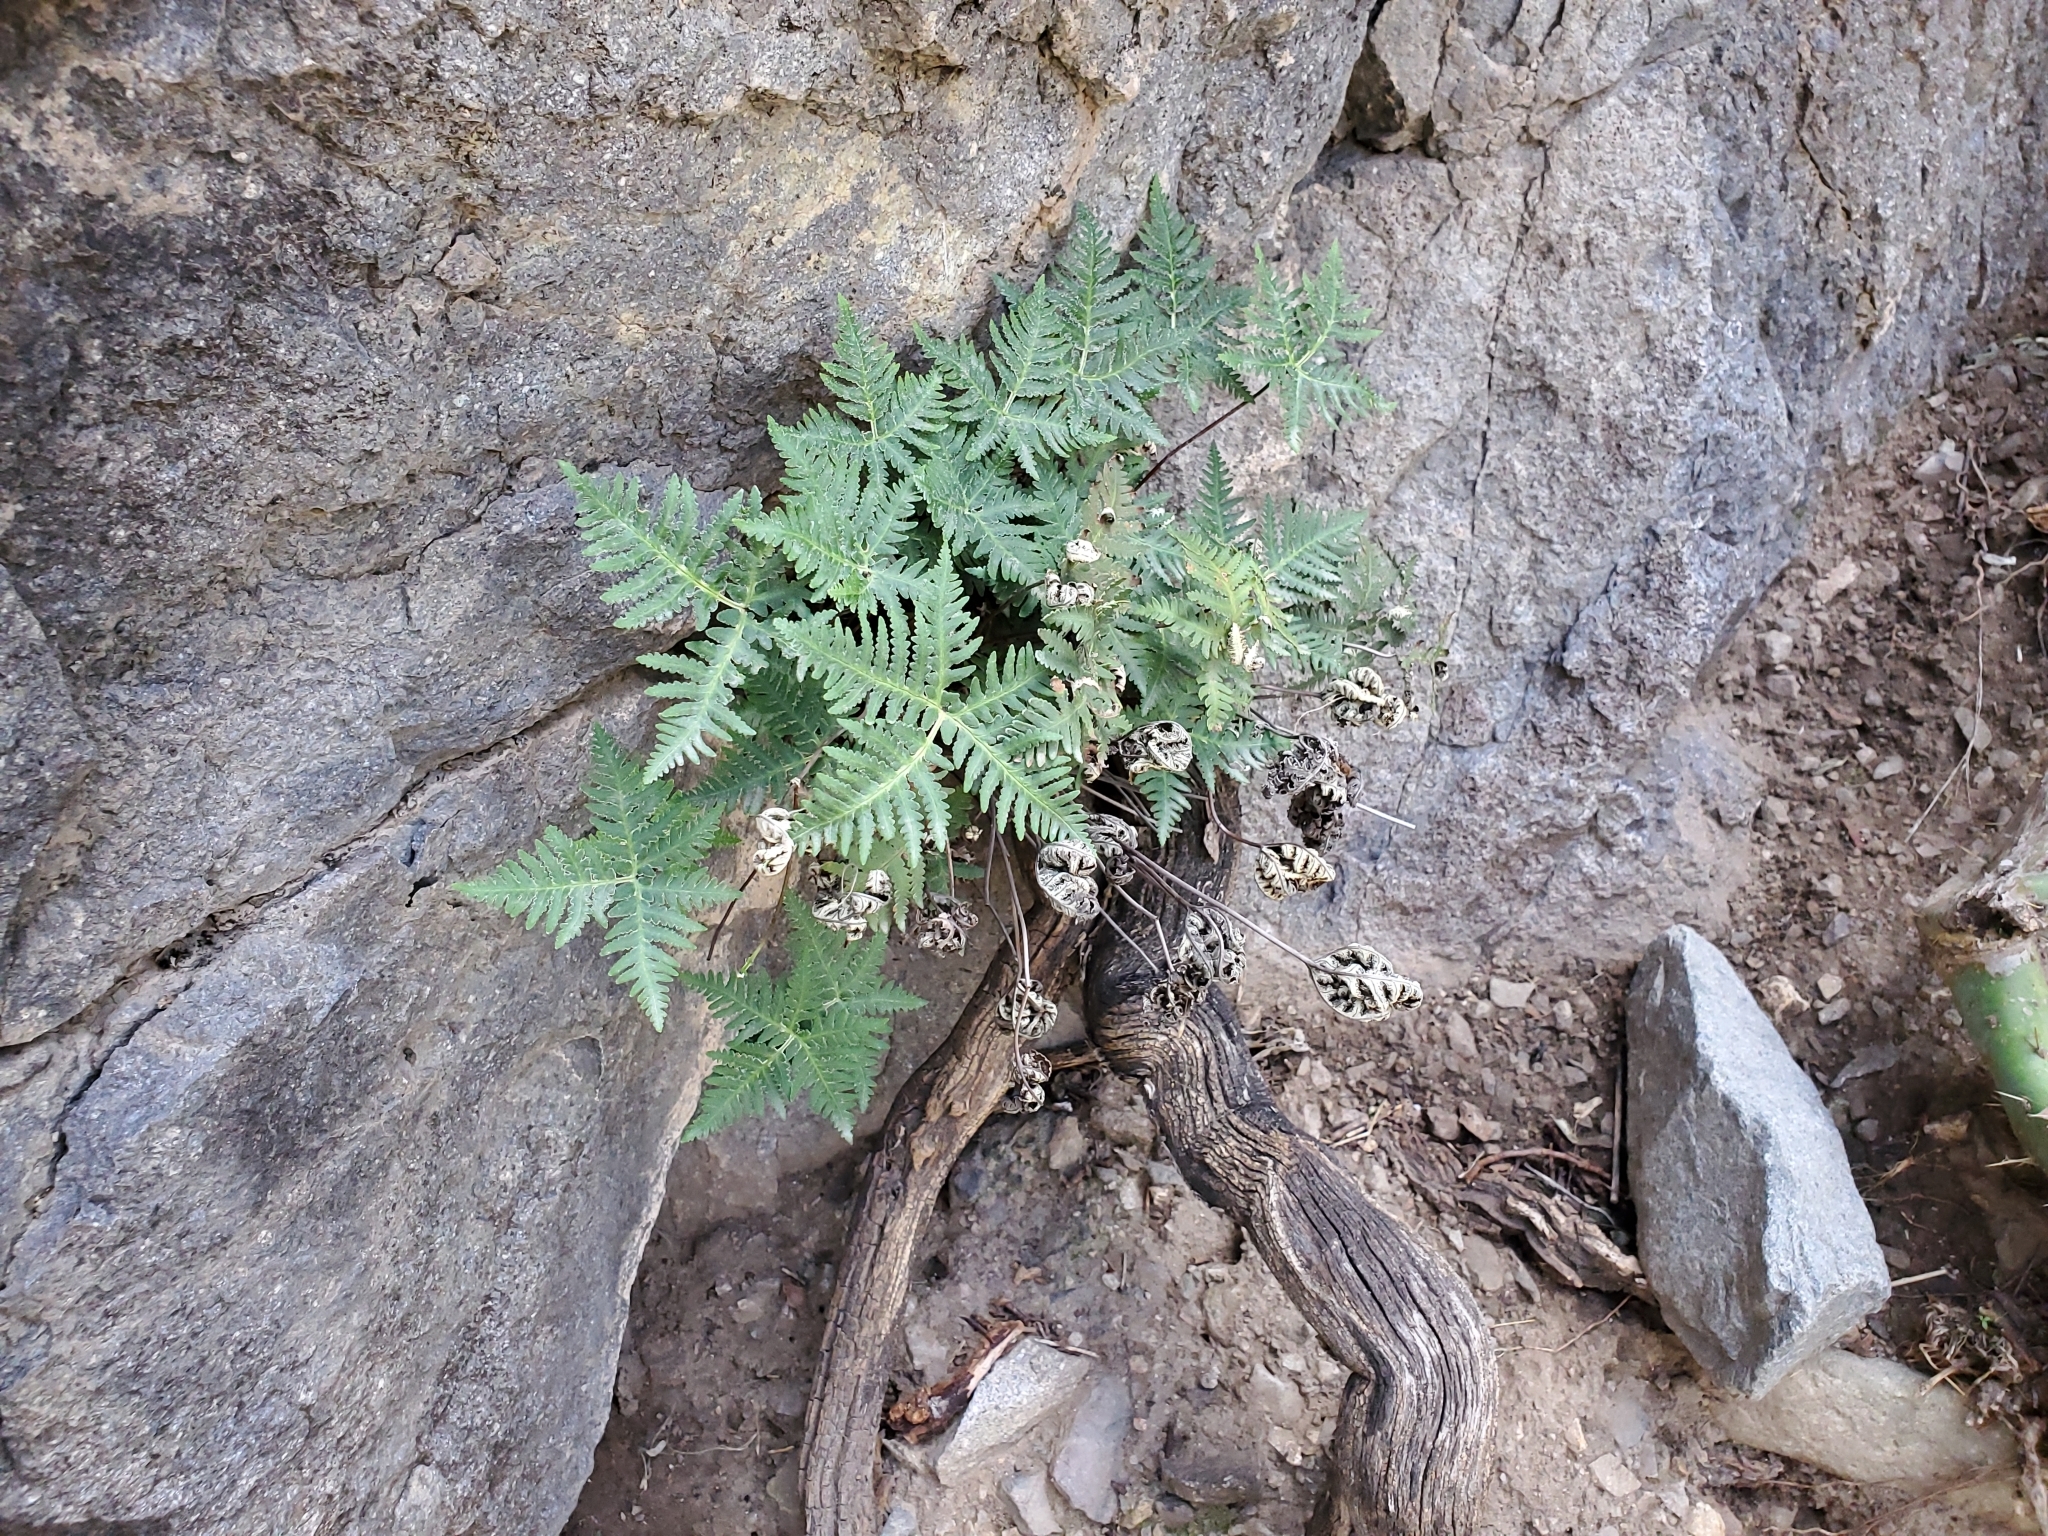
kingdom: Plantae
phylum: Tracheophyta
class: Polypodiopsida
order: Polypodiales
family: Pteridaceae
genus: Notholaena
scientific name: Notholaena standleyi
